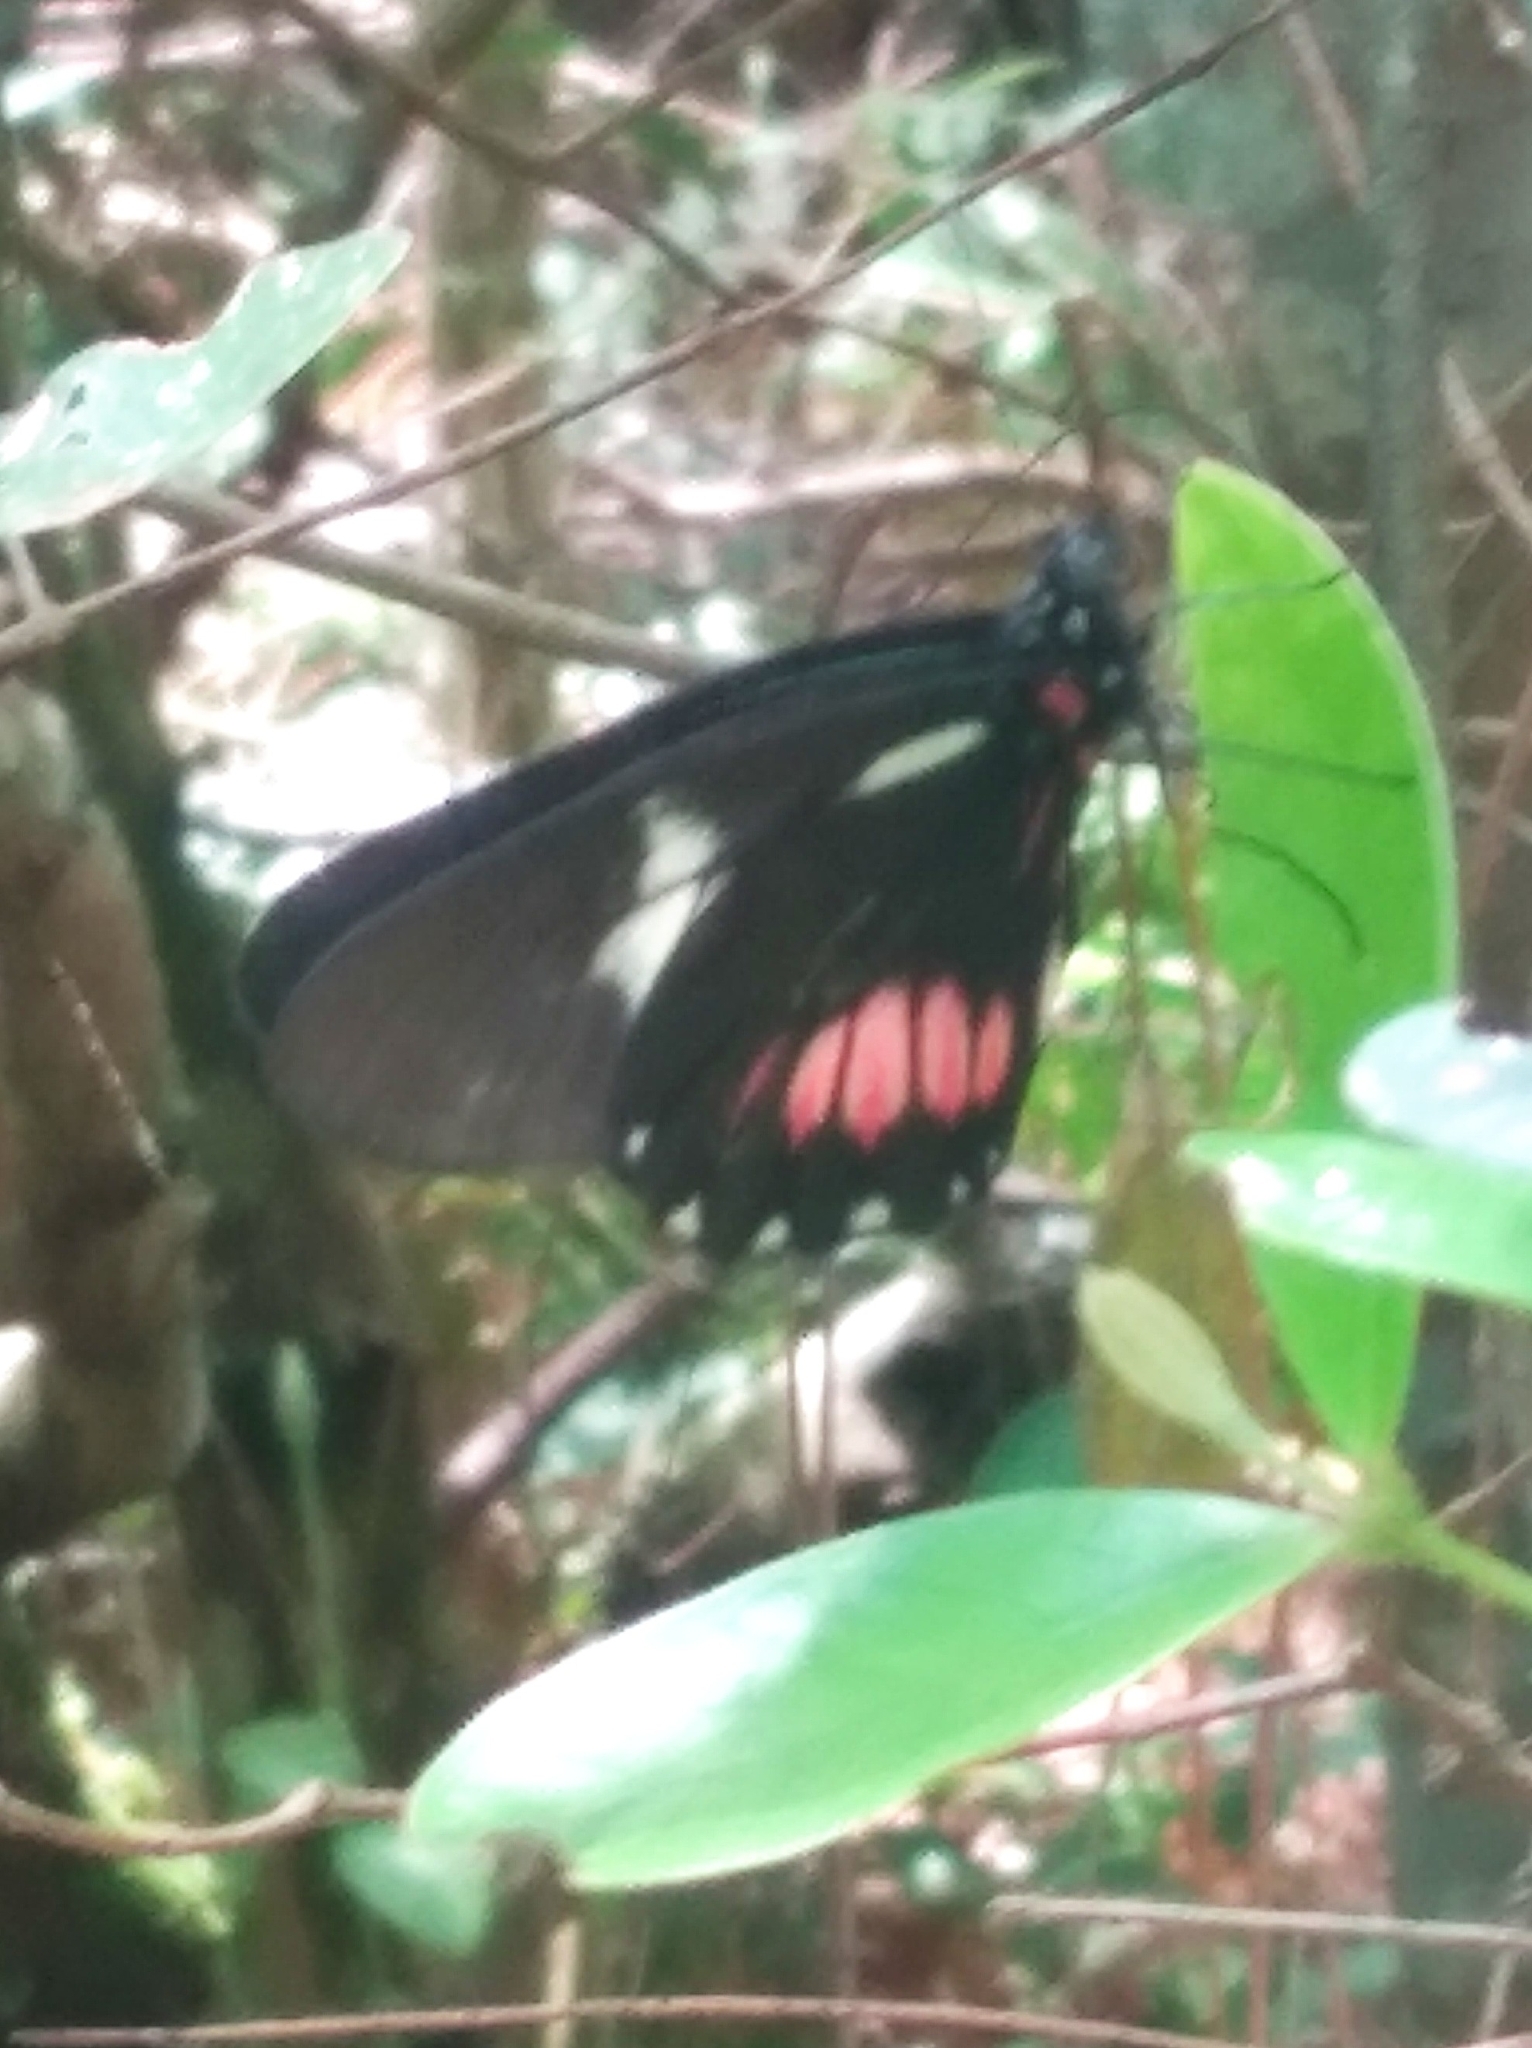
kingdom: Animalia
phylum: Arthropoda
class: Insecta
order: Lepidoptera
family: Pieridae
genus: Archonias
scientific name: Archonias brassolis
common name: Cattleheart white
